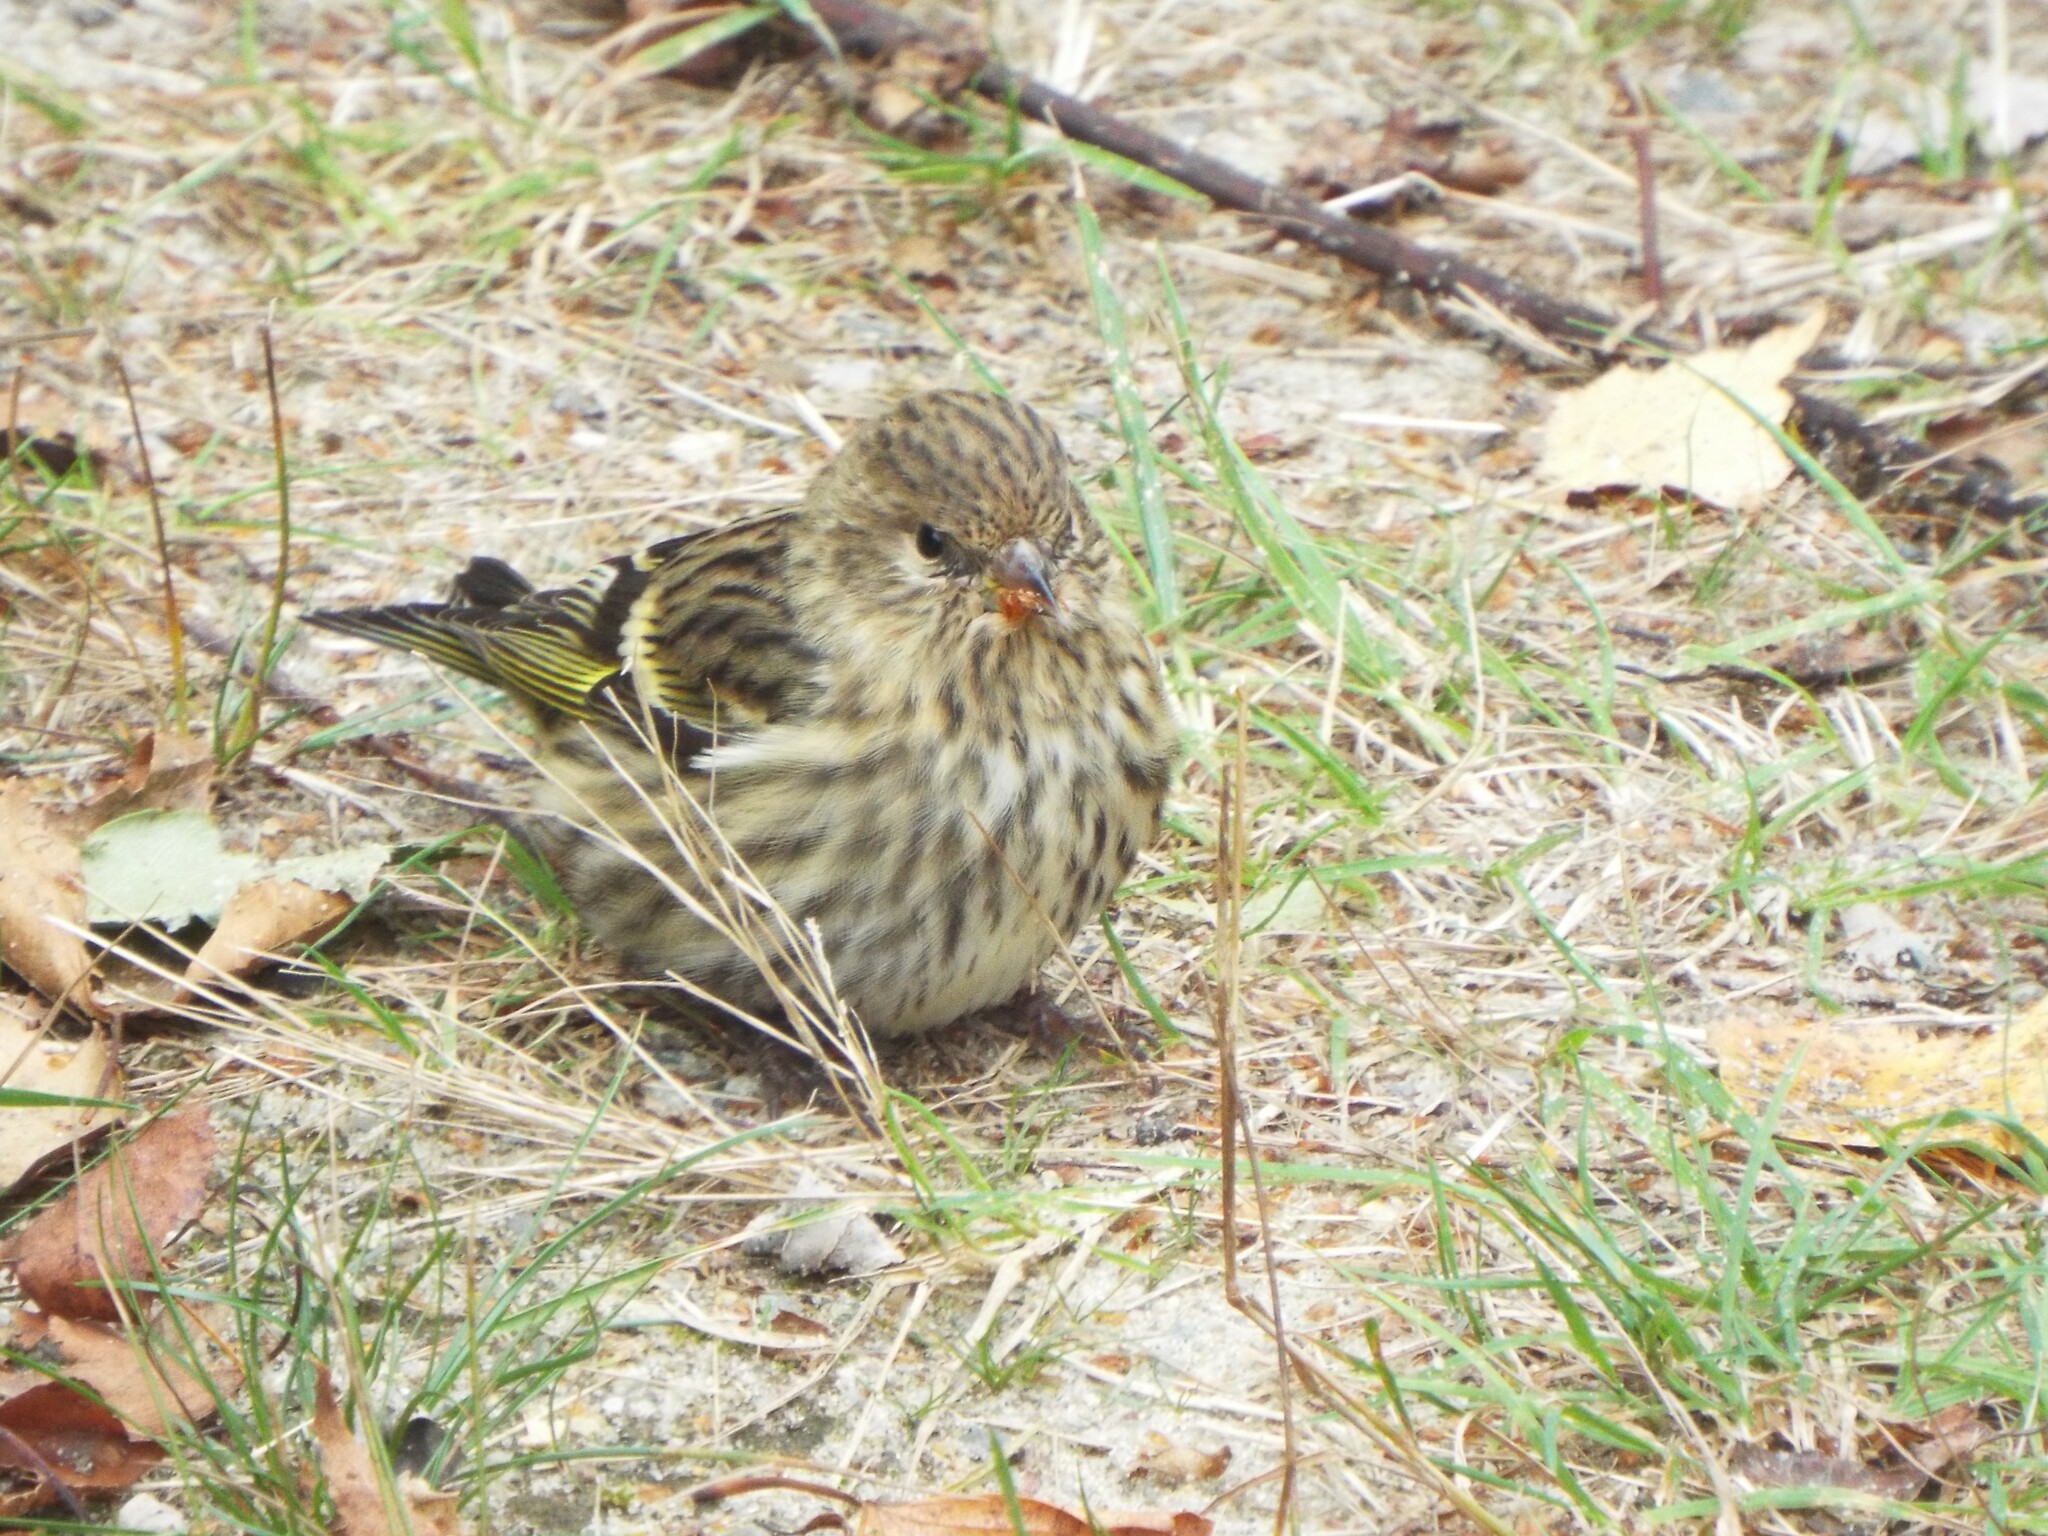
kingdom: Animalia
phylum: Chordata
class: Aves
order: Passeriformes
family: Fringillidae
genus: Spinus
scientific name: Spinus pinus
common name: Pine siskin
